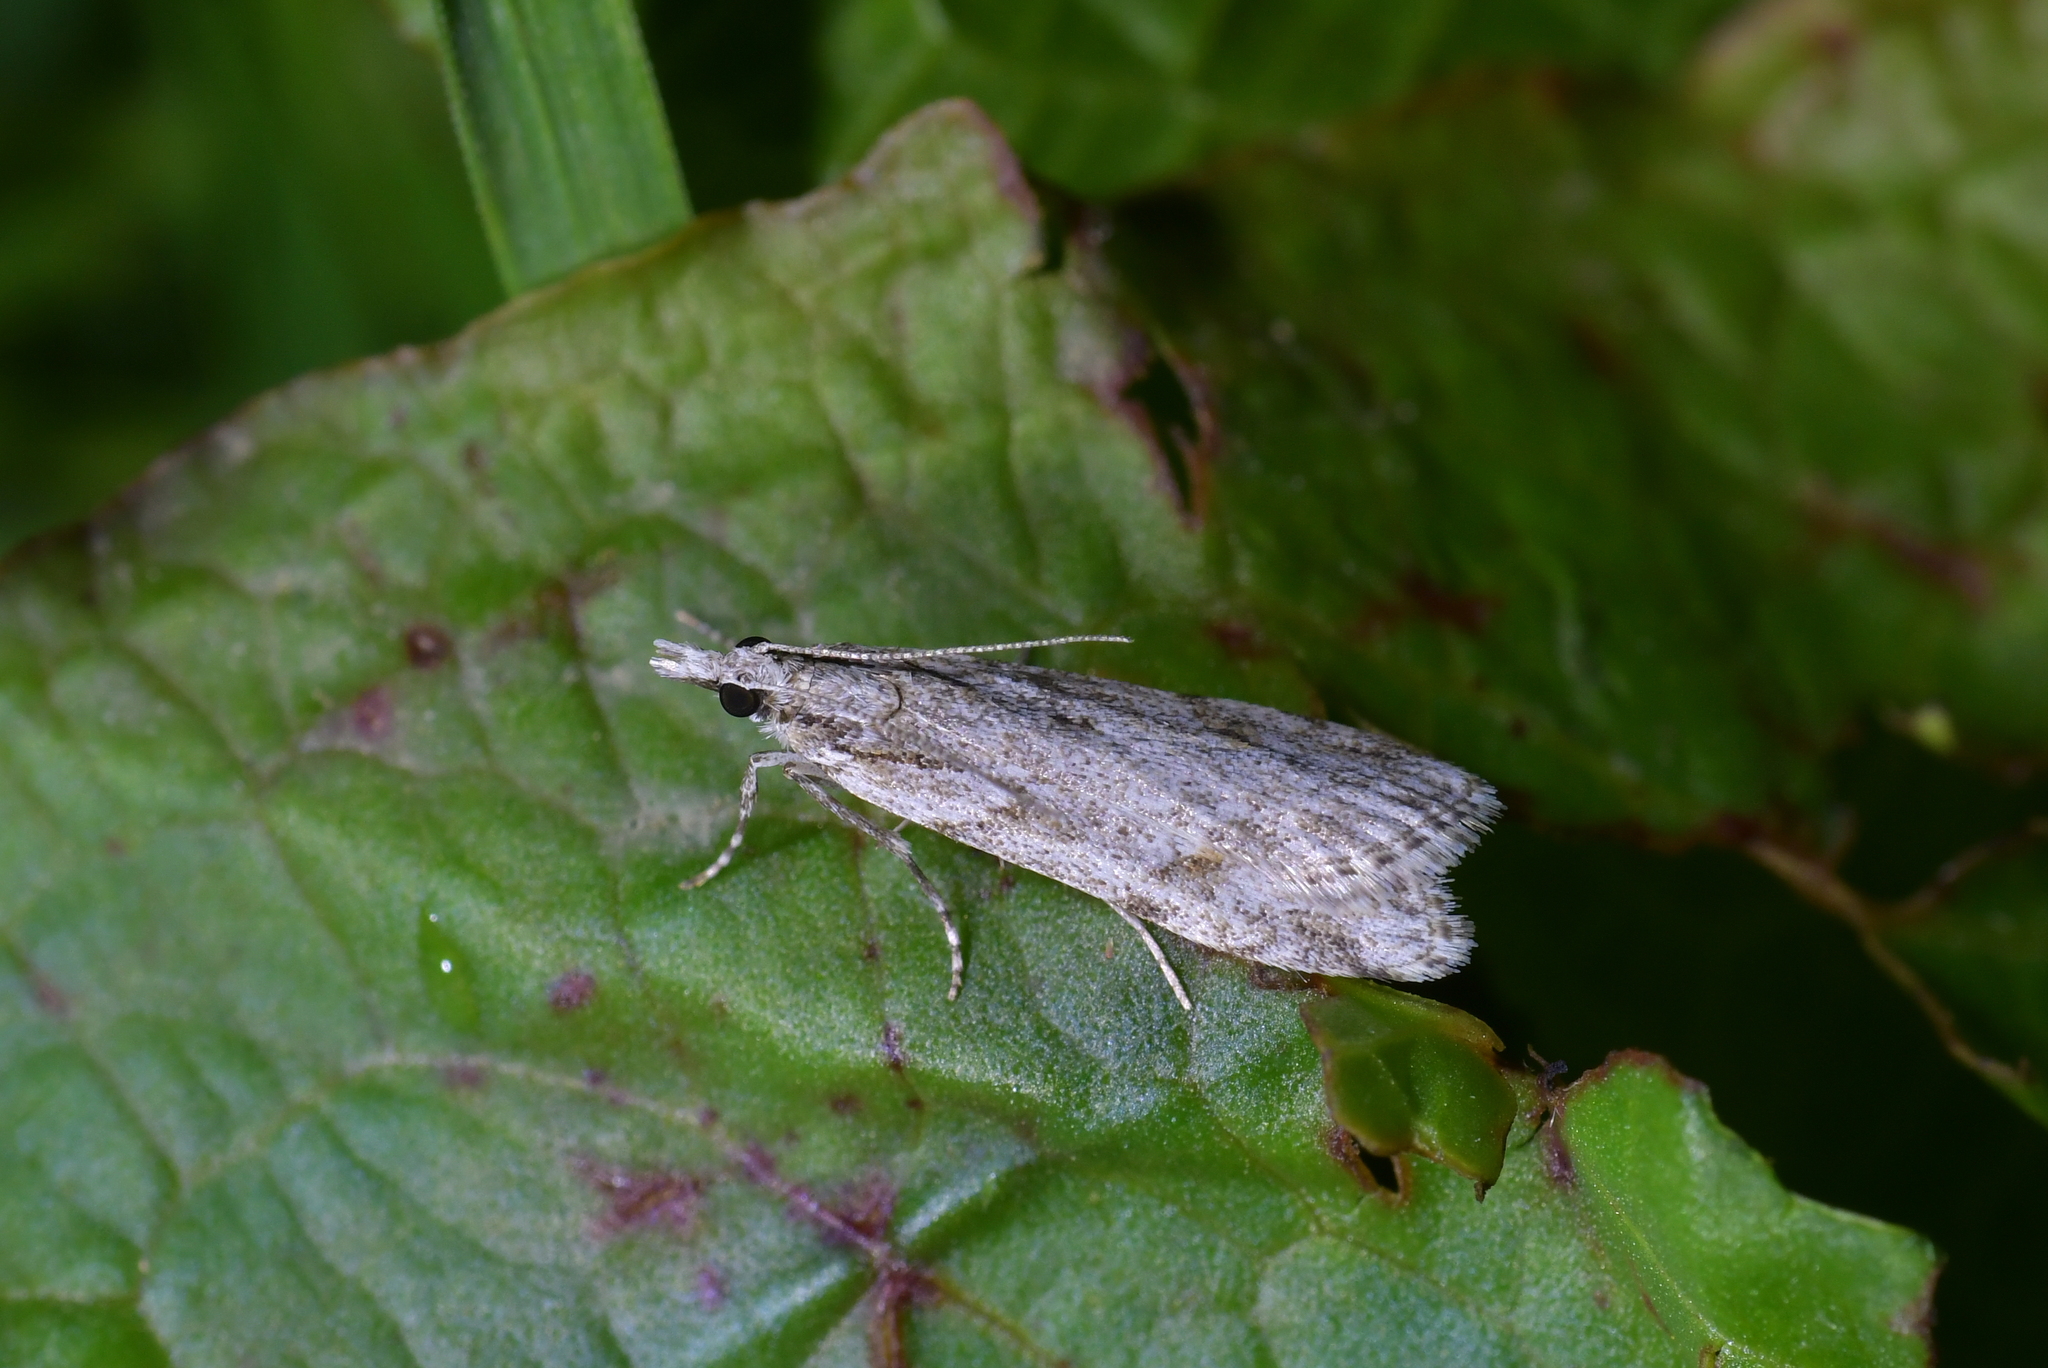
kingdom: Animalia
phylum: Arthropoda
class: Insecta
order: Lepidoptera
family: Crambidae
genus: Scoparia
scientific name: Scoparia chalicodes
